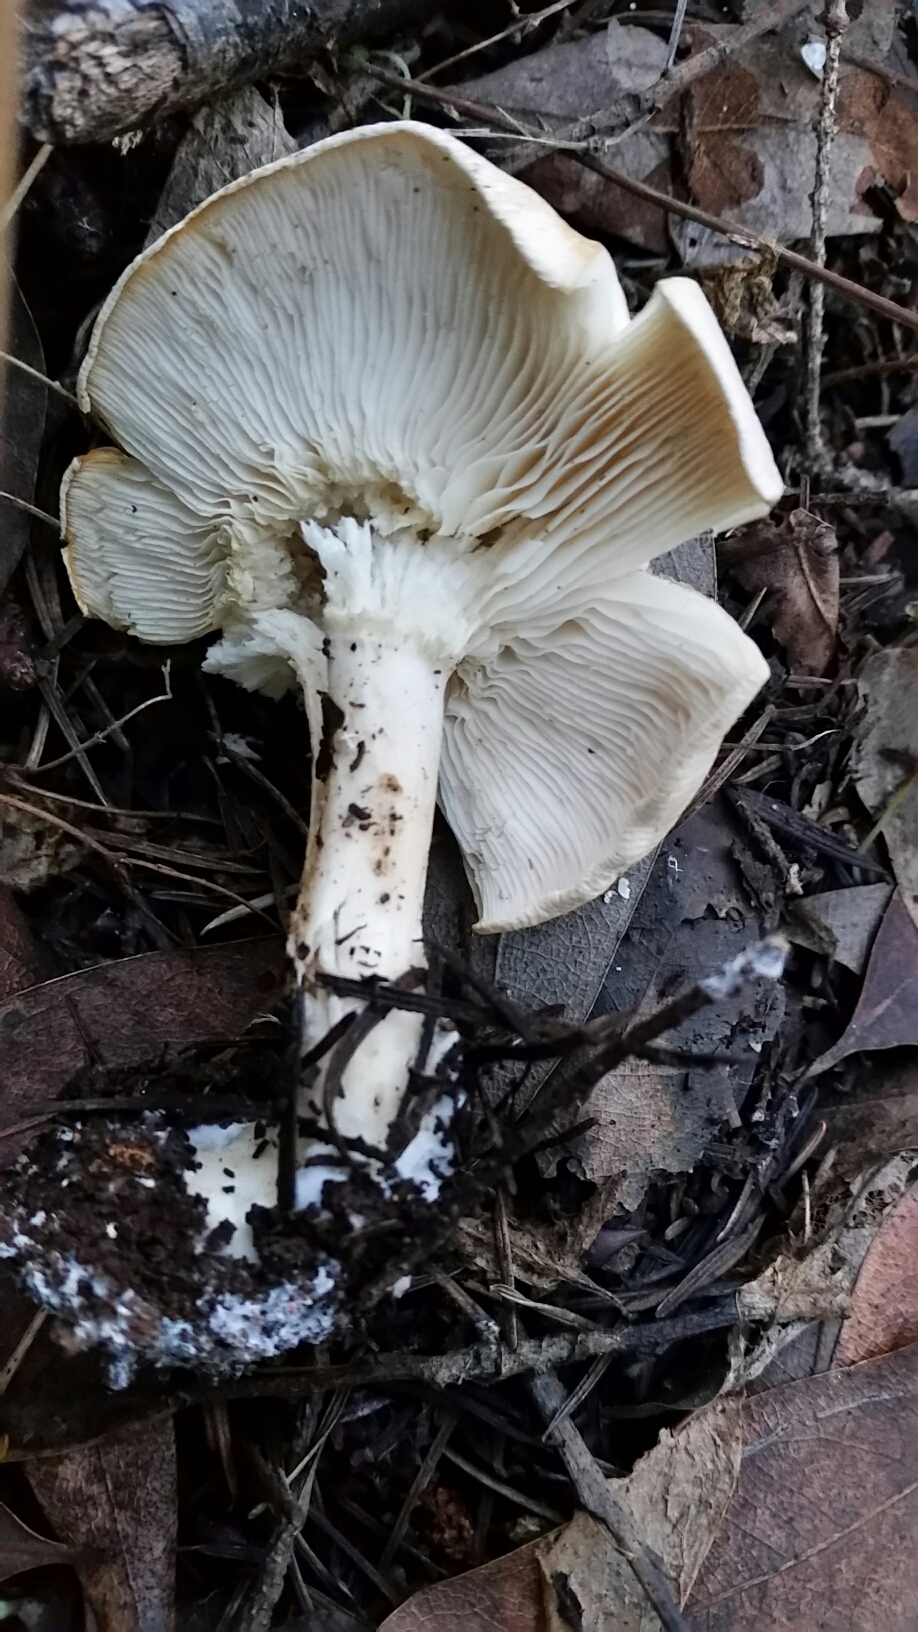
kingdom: Fungi
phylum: Basidiomycota
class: Agaricomycetes
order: Agaricales
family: Tricholomataceae
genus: Leucopaxillus
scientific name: Leucopaxillus gentianeus
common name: Bitter funnel
